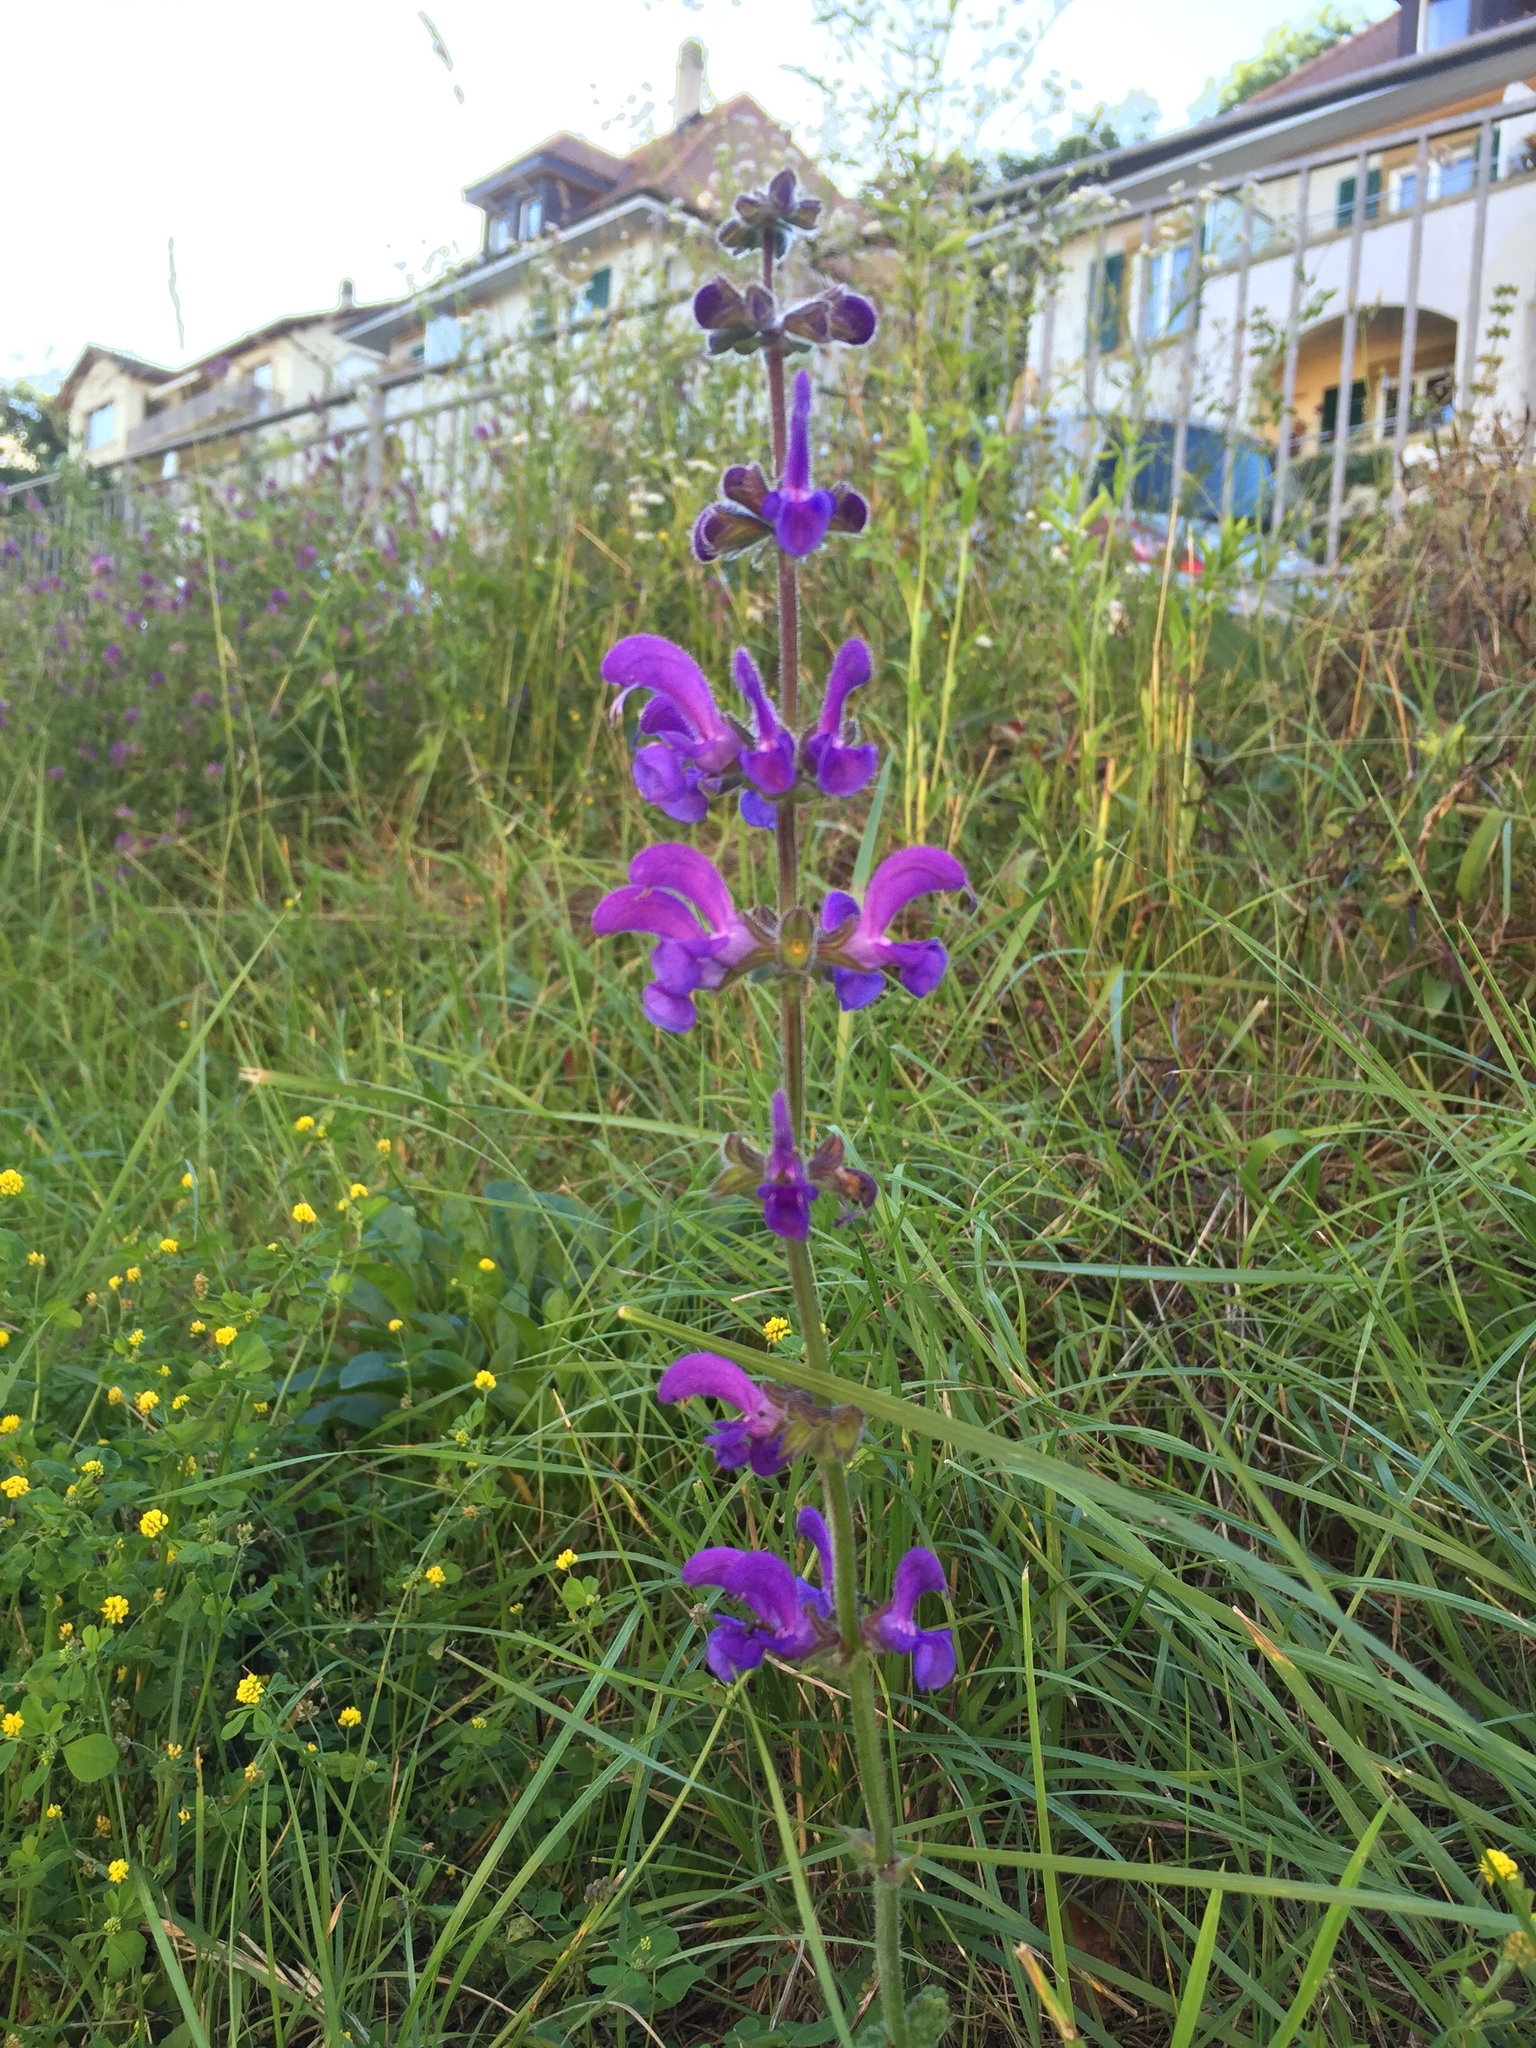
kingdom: Plantae
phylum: Tracheophyta
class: Magnoliopsida
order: Lamiales
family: Lamiaceae
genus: Salvia
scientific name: Salvia pratensis
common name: Meadow sage
